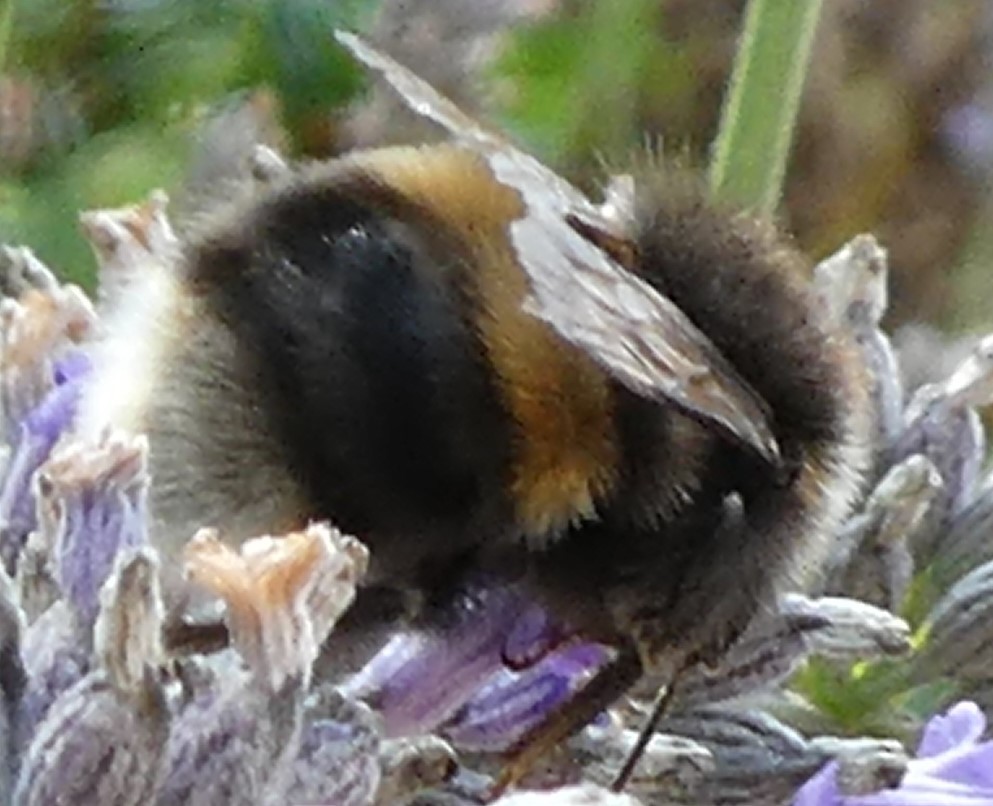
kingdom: Animalia
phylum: Arthropoda
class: Insecta
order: Hymenoptera
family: Apidae
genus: Bombus
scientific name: Bombus terrestris
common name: Buff-tailed bumblebee
